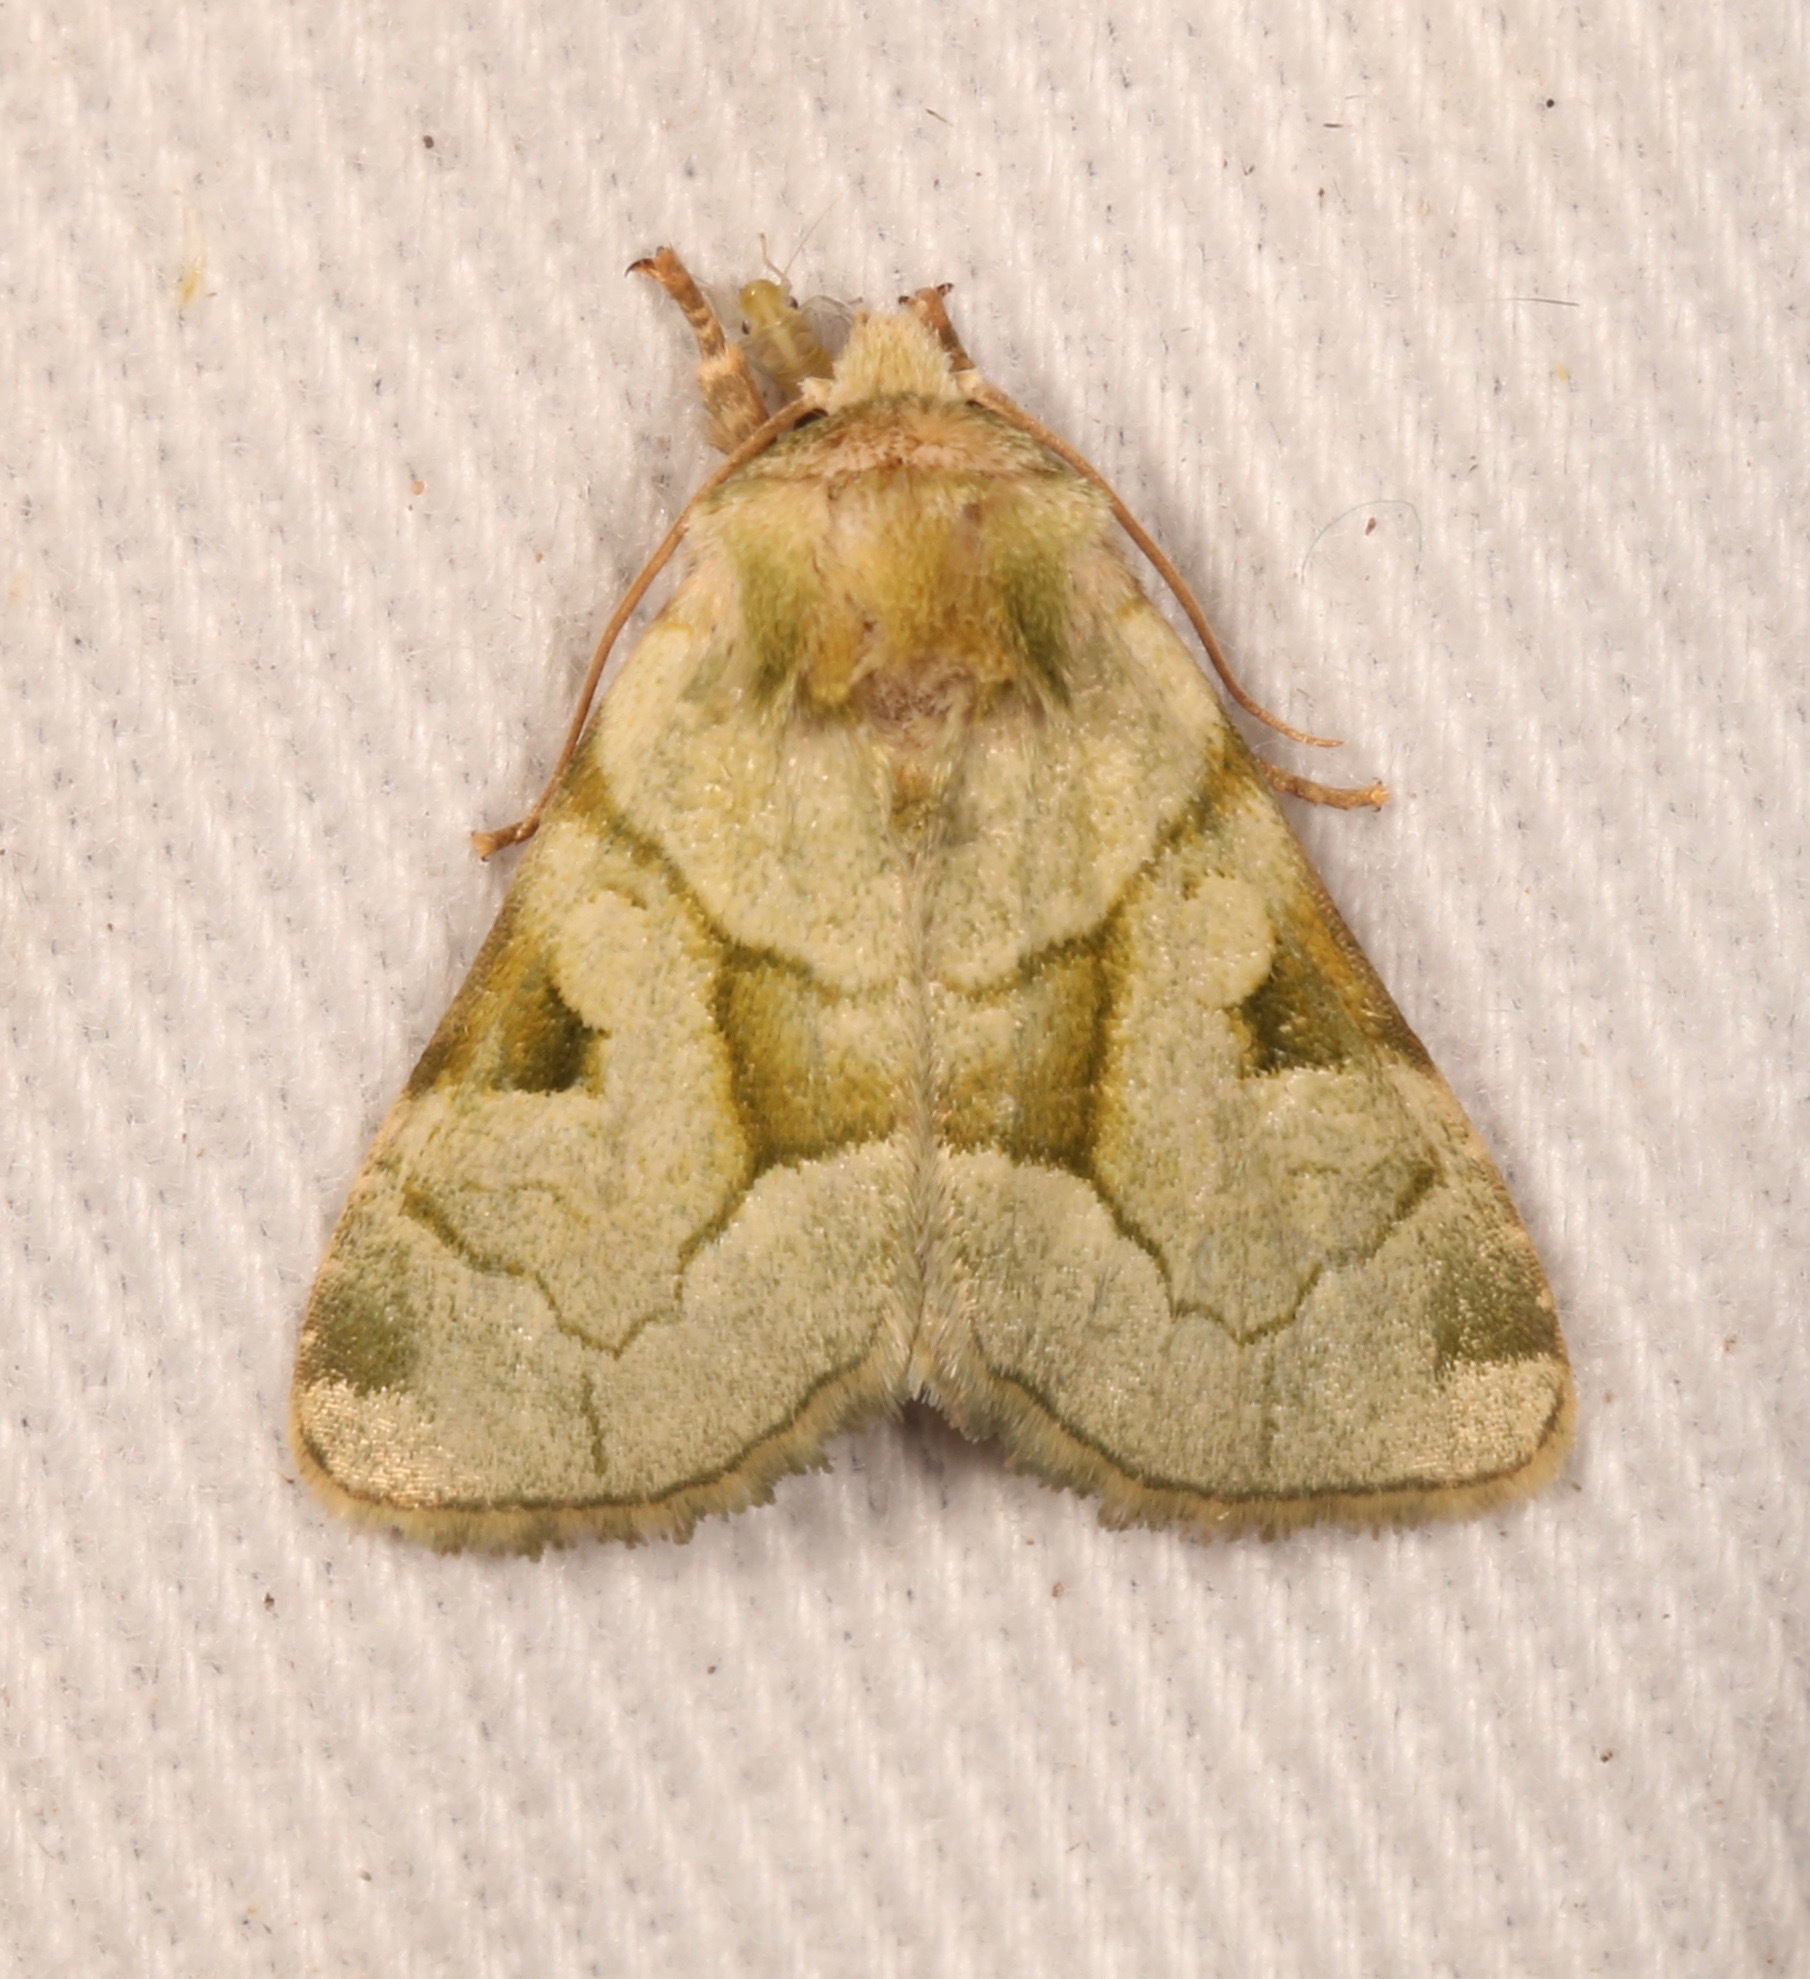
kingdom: Animalia
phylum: Arthropoda
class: Insecta
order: Lepidoptera
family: Noctuidae
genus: Oslaria
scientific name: Oslaria viridifera
